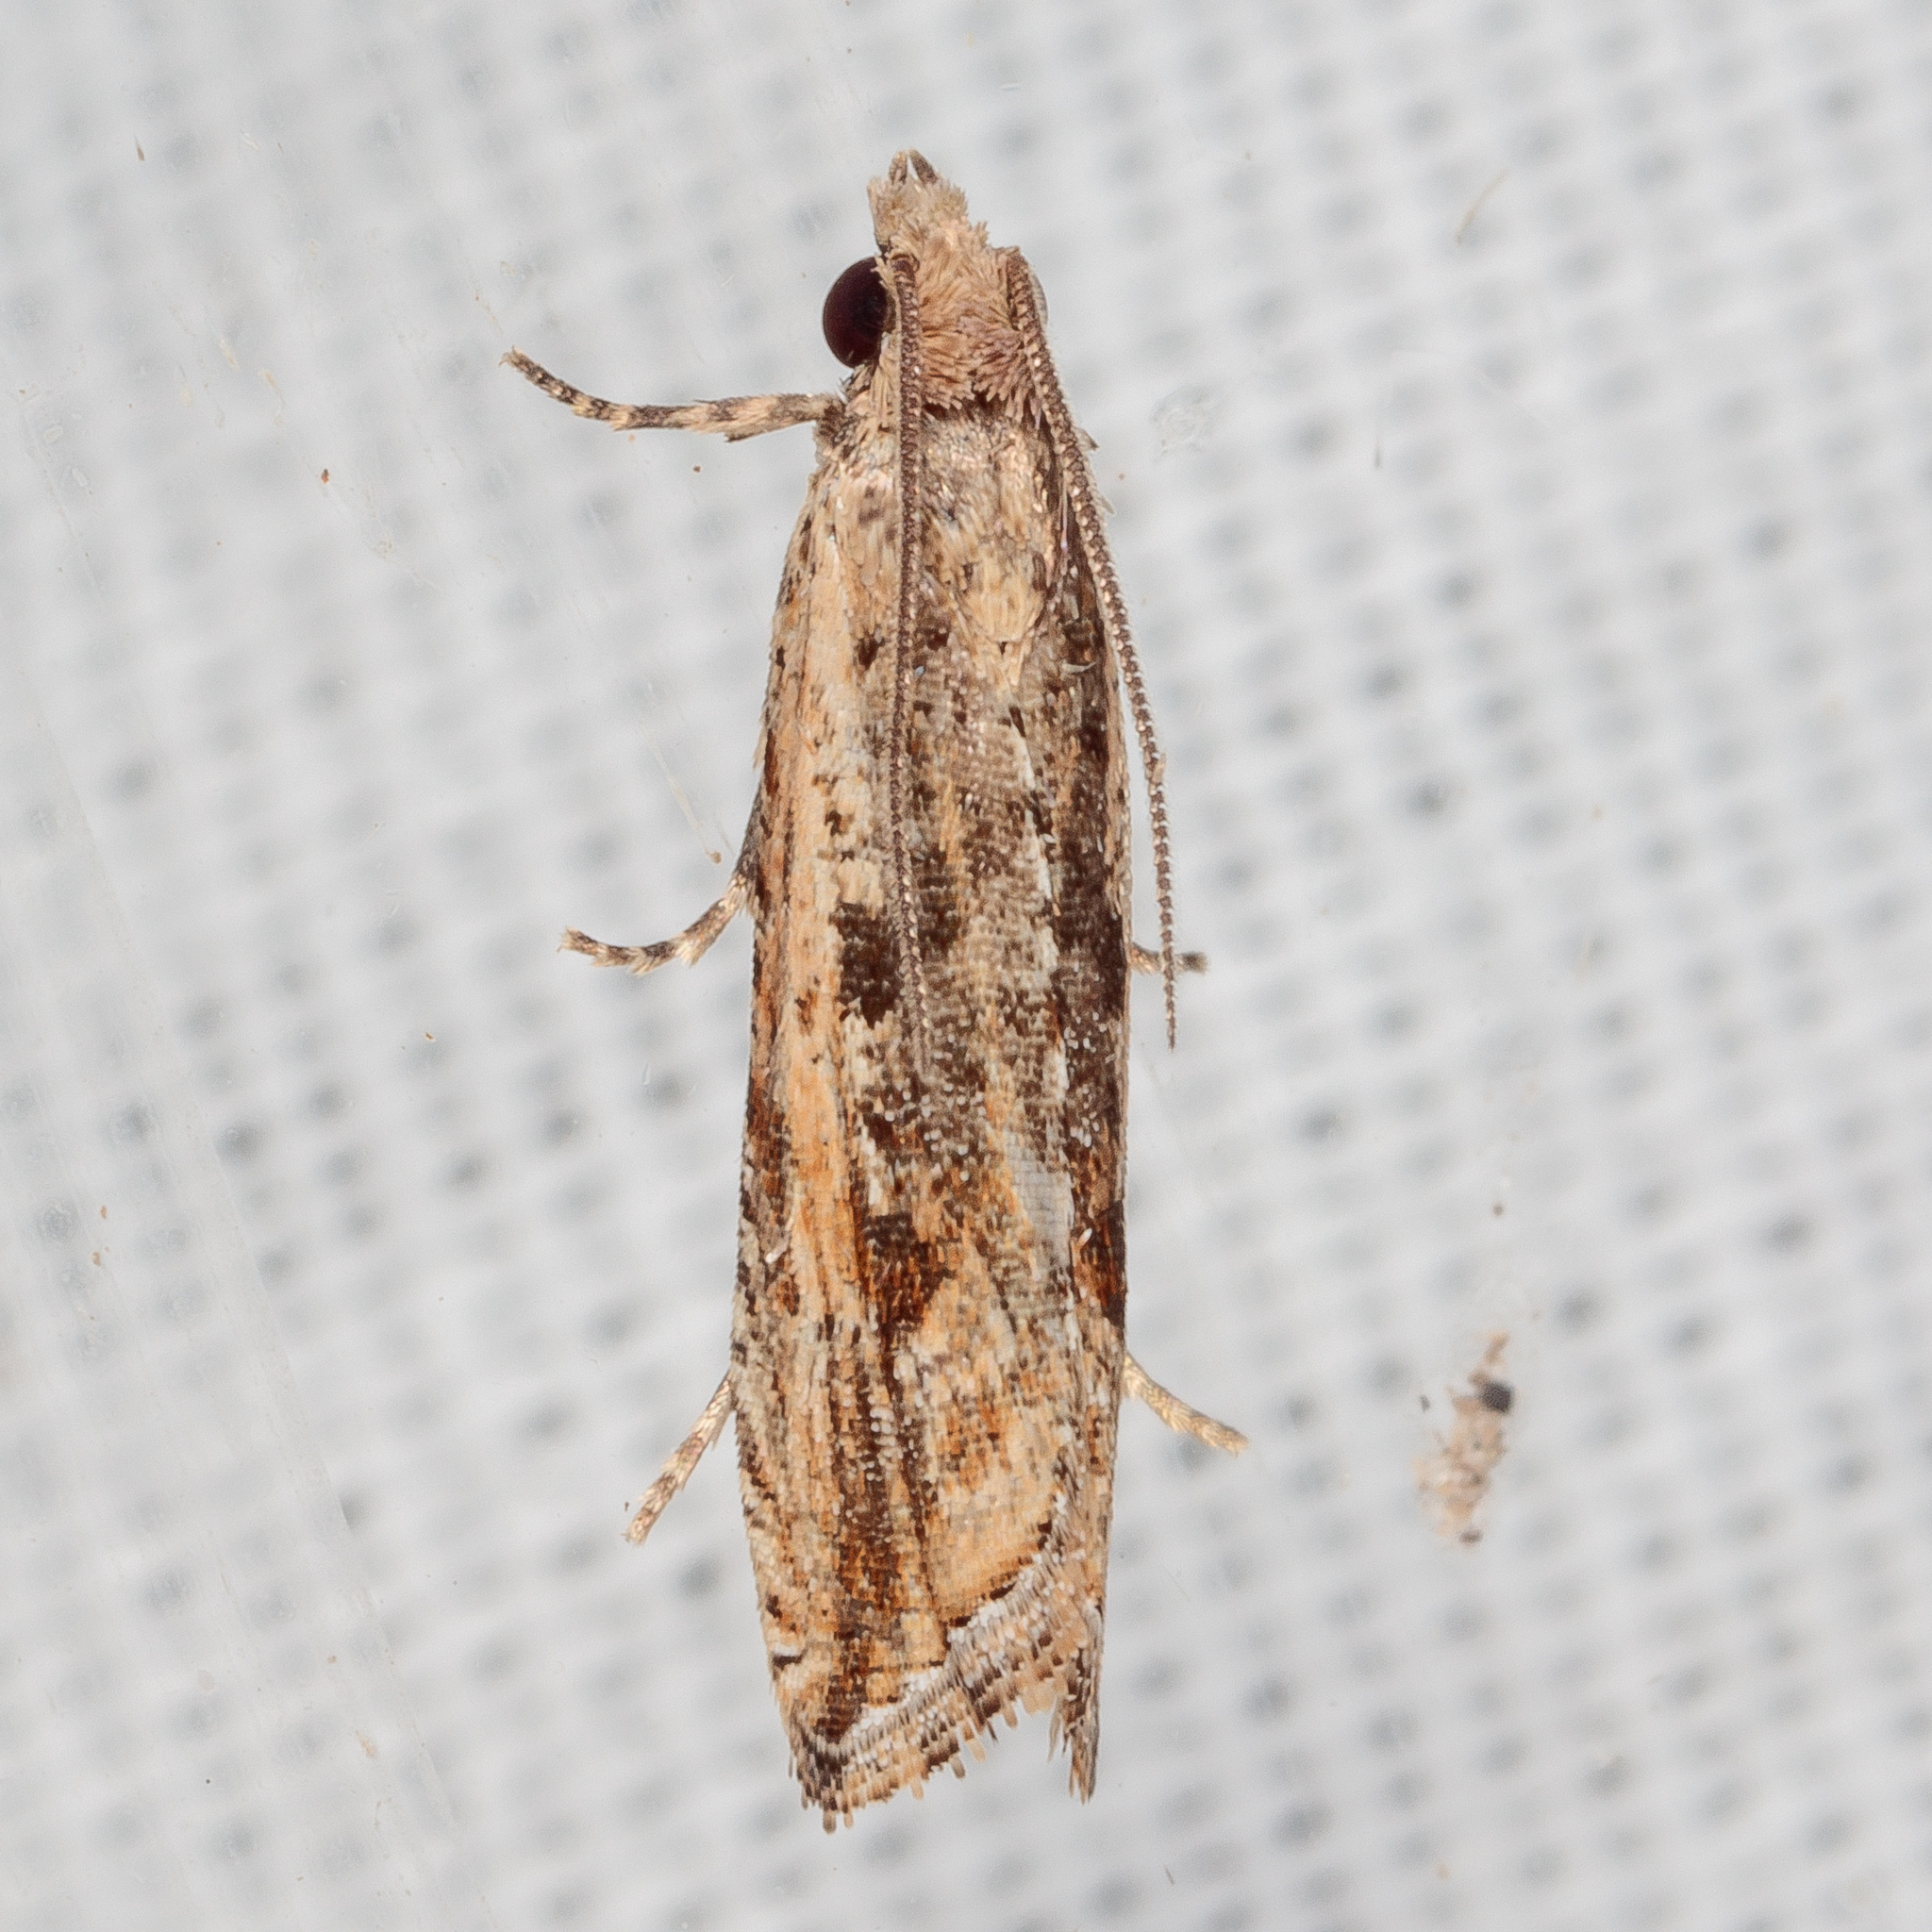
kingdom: Animalia
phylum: Arthropoda
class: Insecta
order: Lepidoptera
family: Tortricidae
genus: Bactra
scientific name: Bactra verutana
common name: Javelin moth
